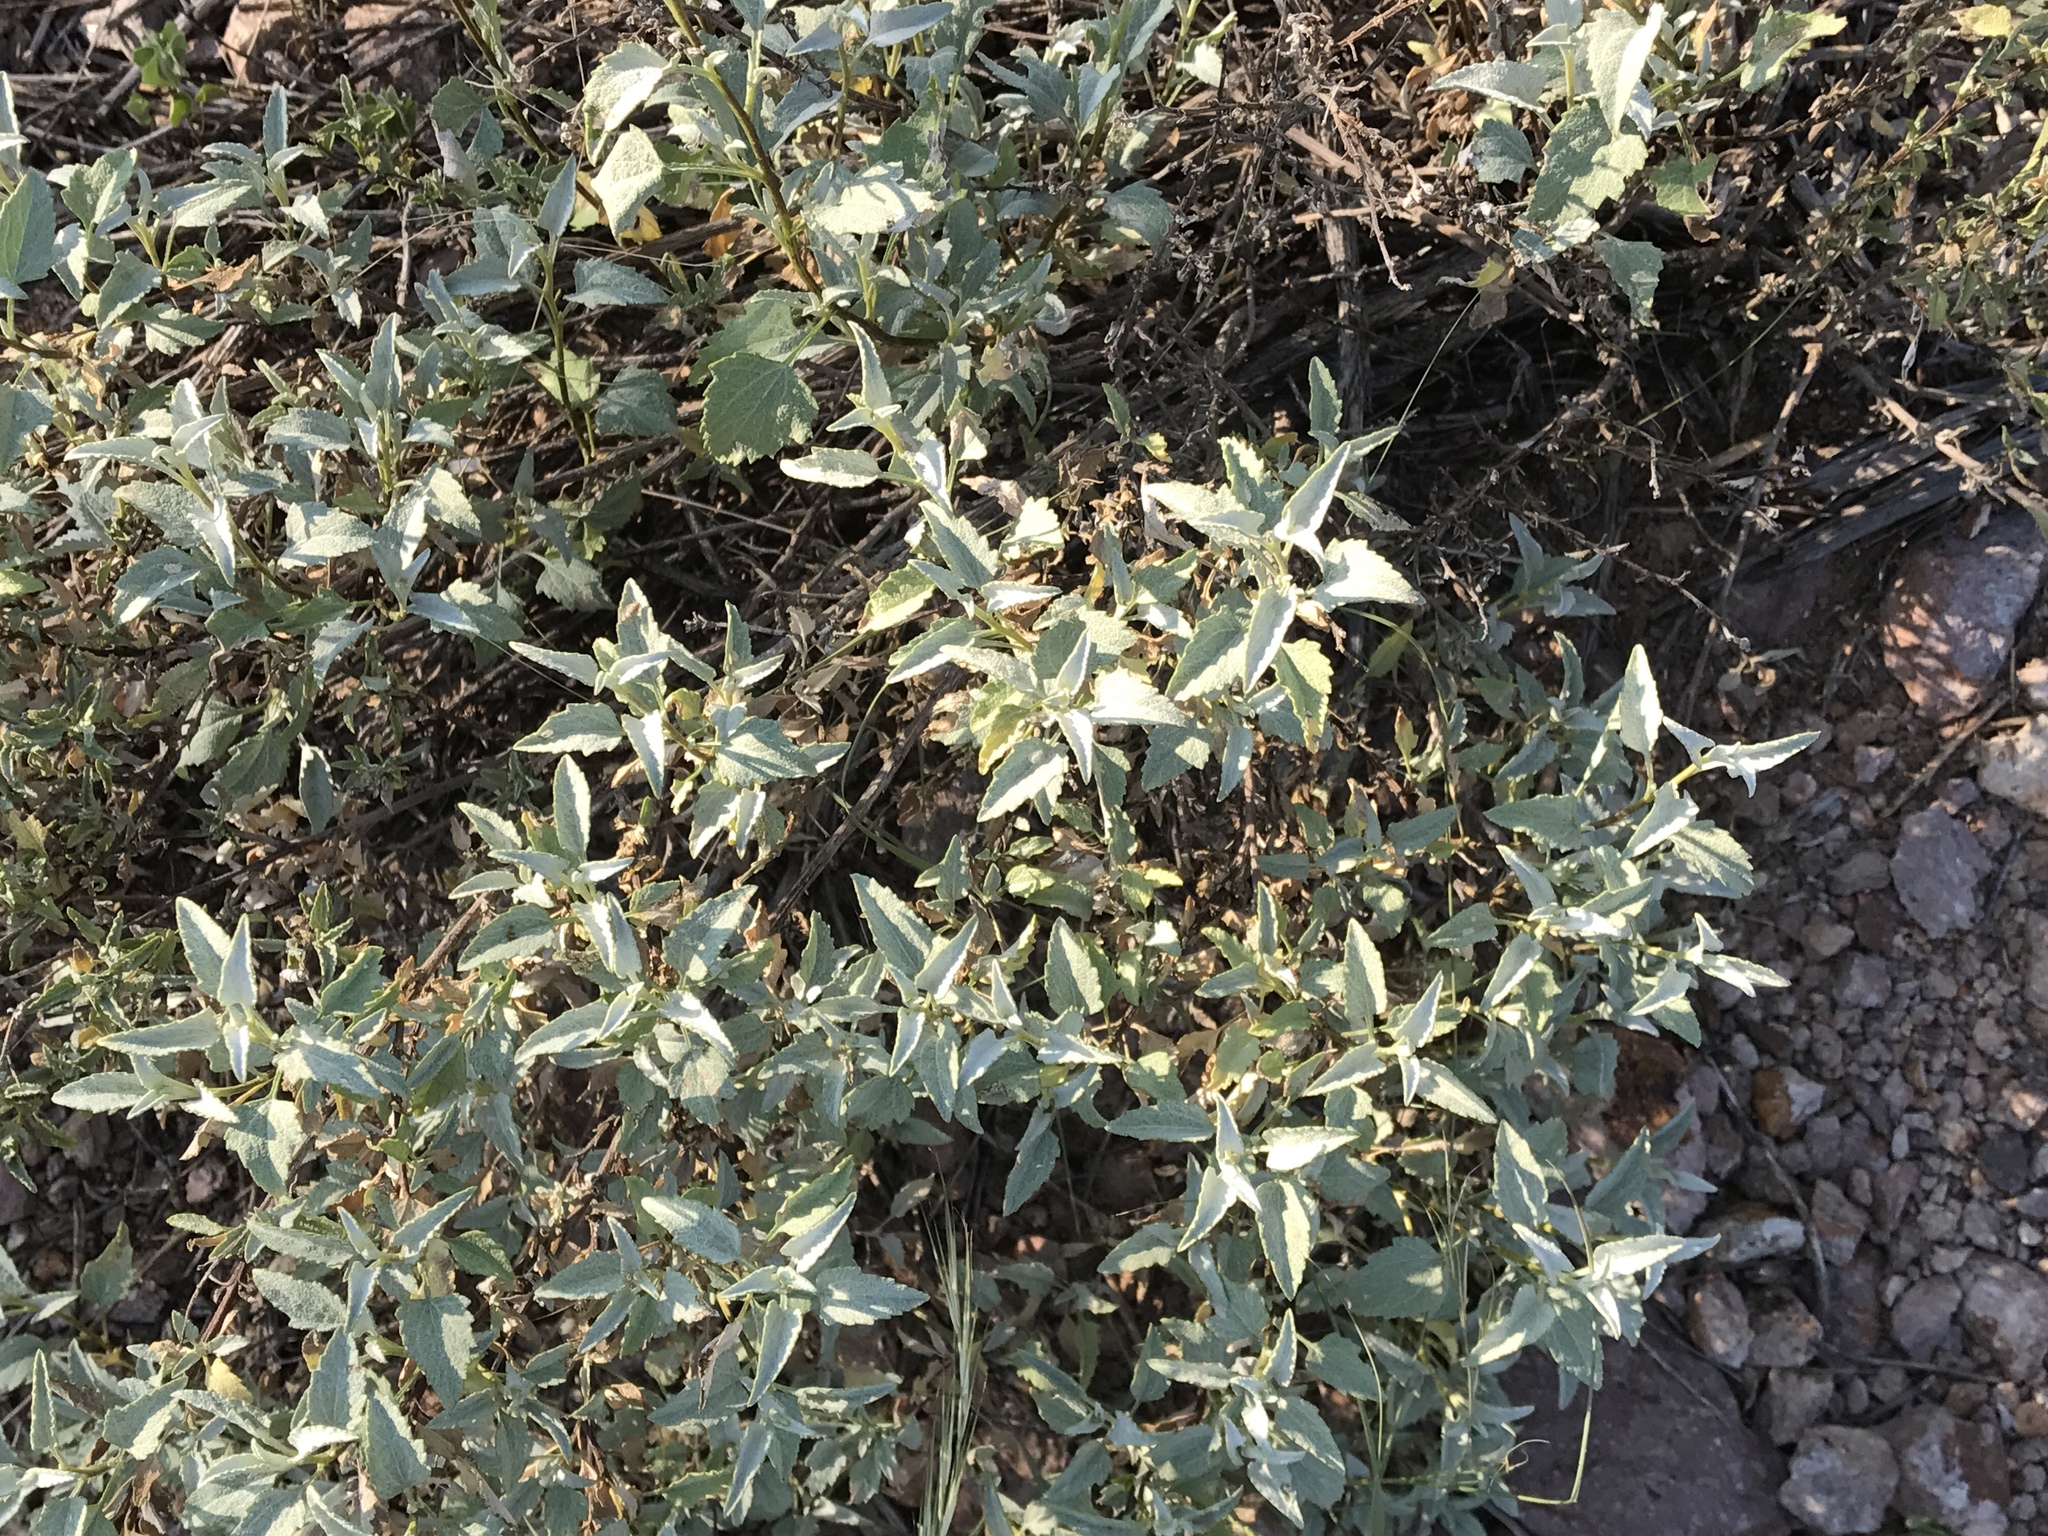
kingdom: Plantae
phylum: Tracheophyta
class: Magnoliopsida
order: Asterales
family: Asteraceae
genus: Ambrosia
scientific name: Ambrosia deltoidea
